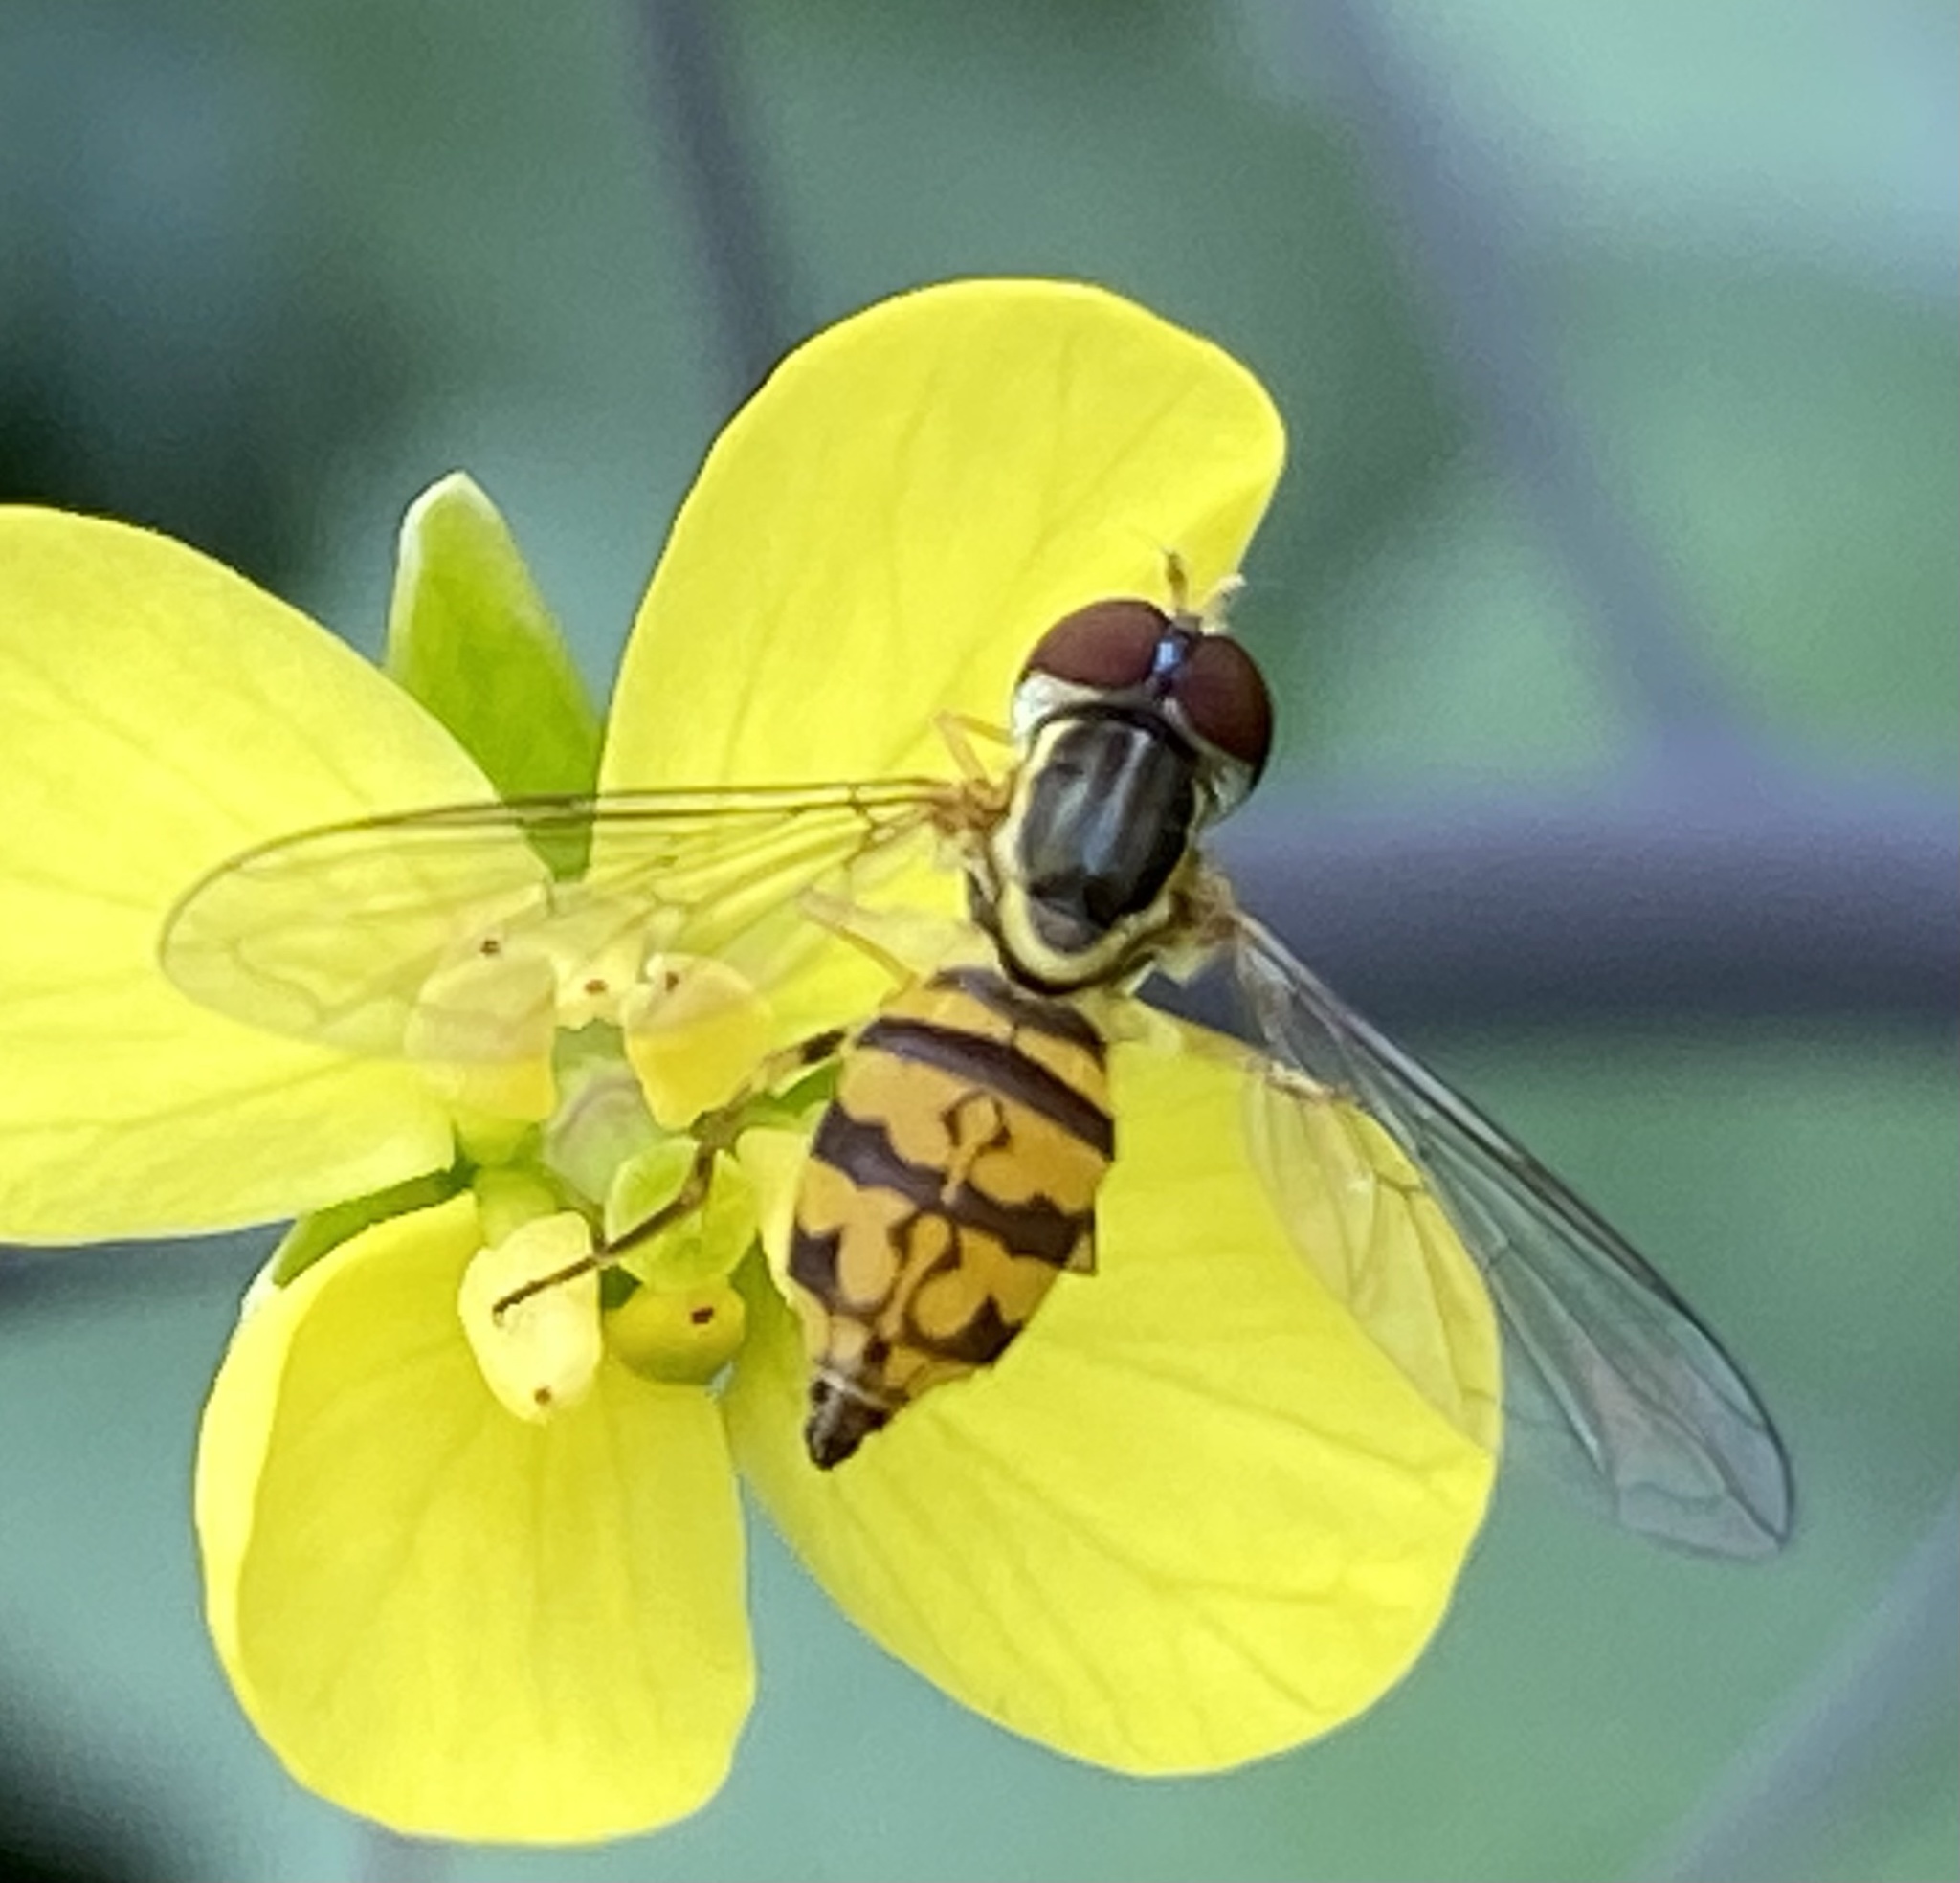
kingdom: Animalia
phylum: Arthropoda
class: Insecta
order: Diptera
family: Syrphidae
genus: Toxomerus
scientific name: Toxomerus geminatus
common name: Eastern calligrapher
